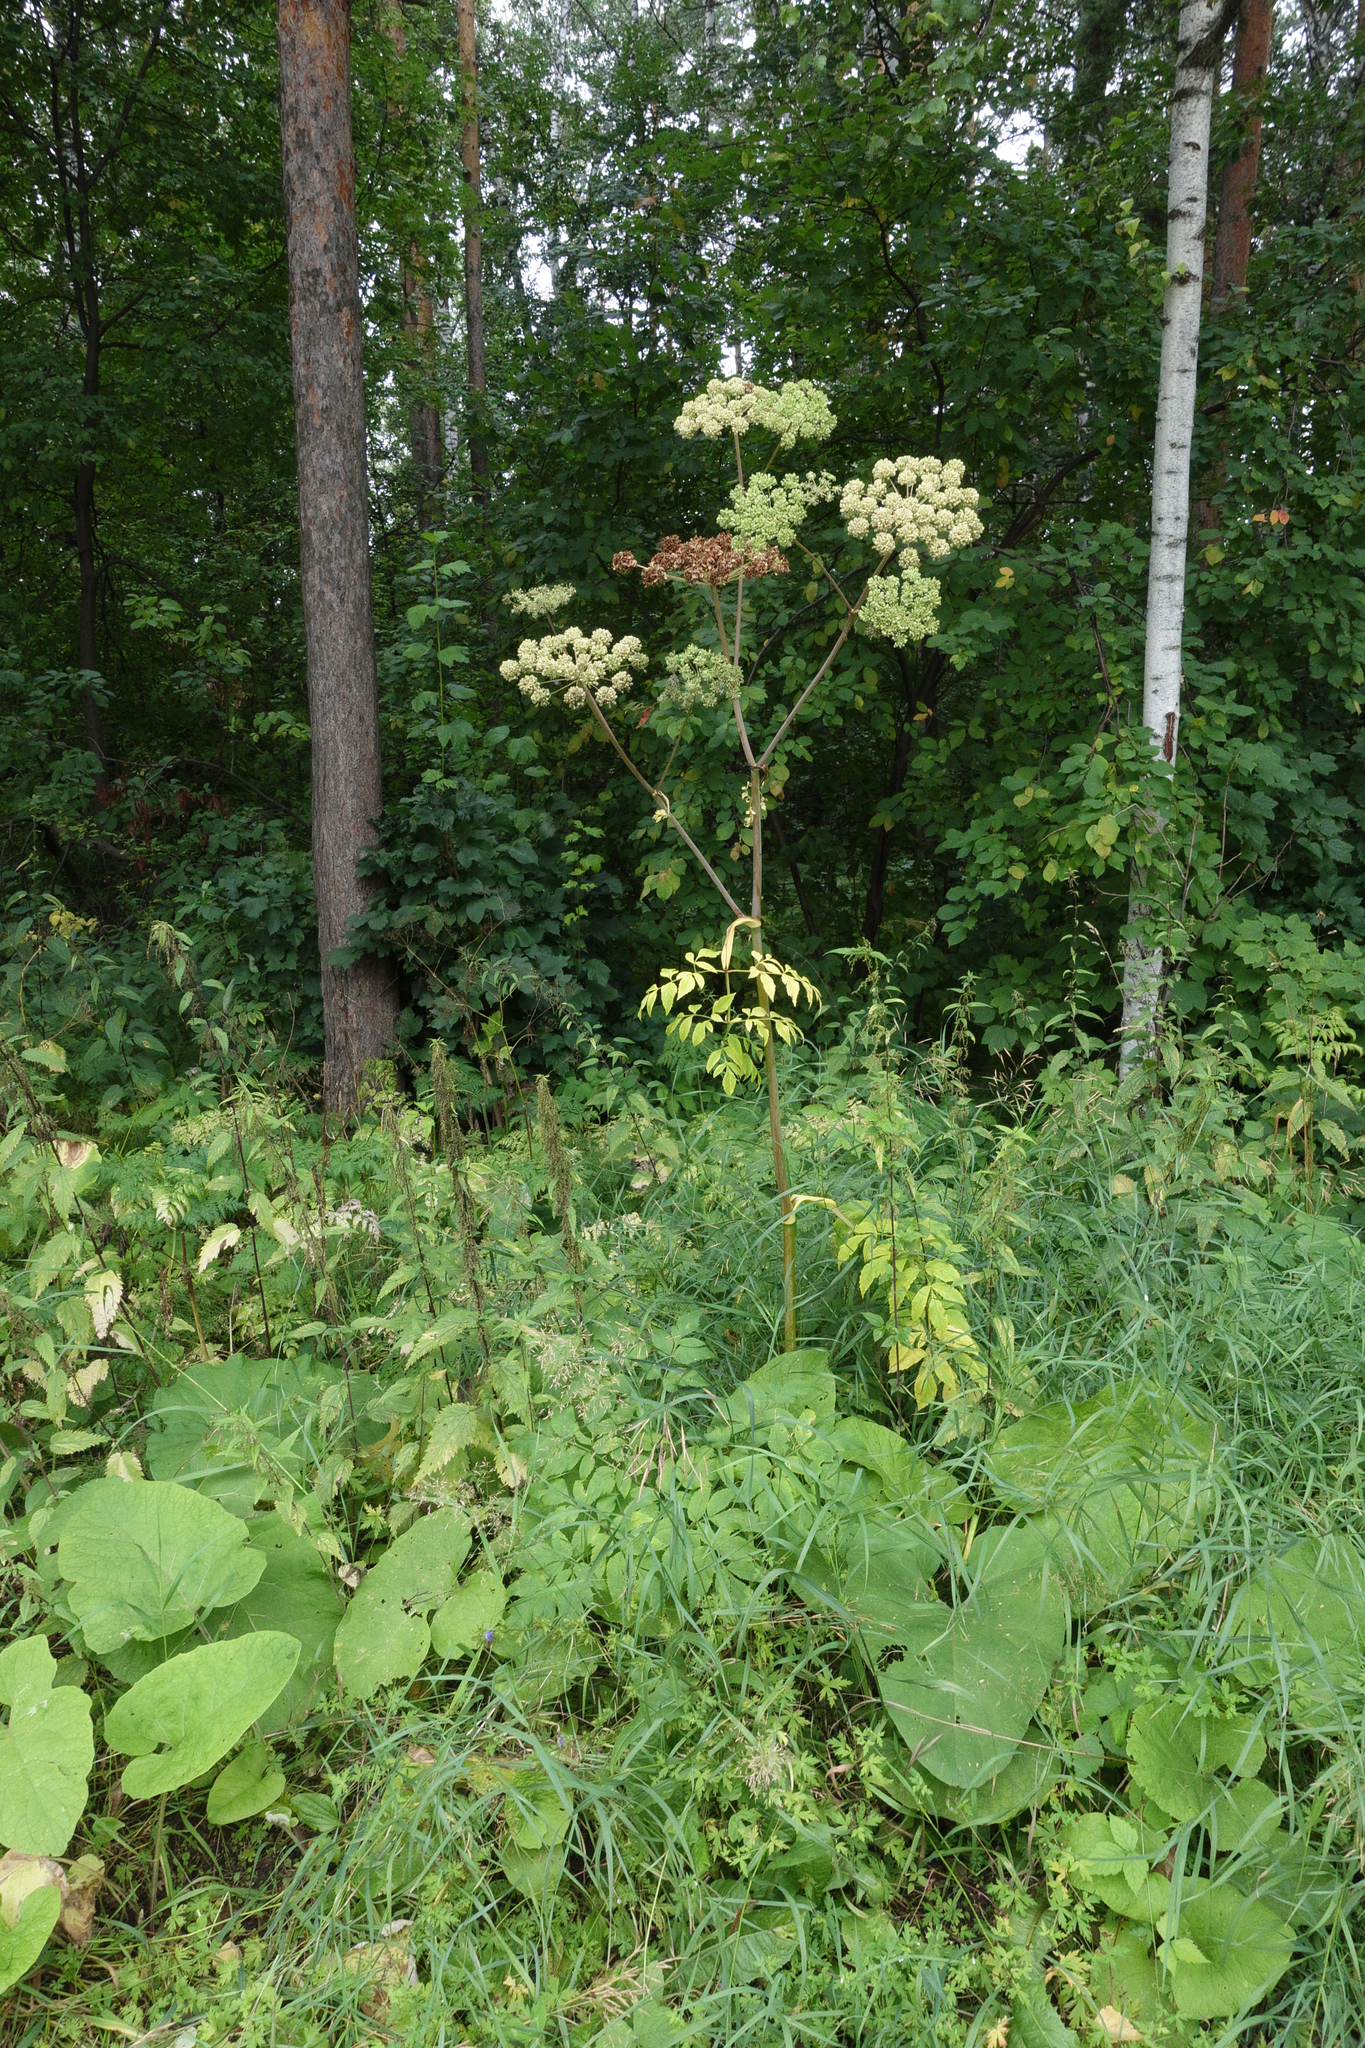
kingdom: Plantae
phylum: Tracheophyta
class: Magnoliopsida
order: Apiales
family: Apiaceae
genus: Angelica
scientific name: Angelica sylvestris
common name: Wild angelica
